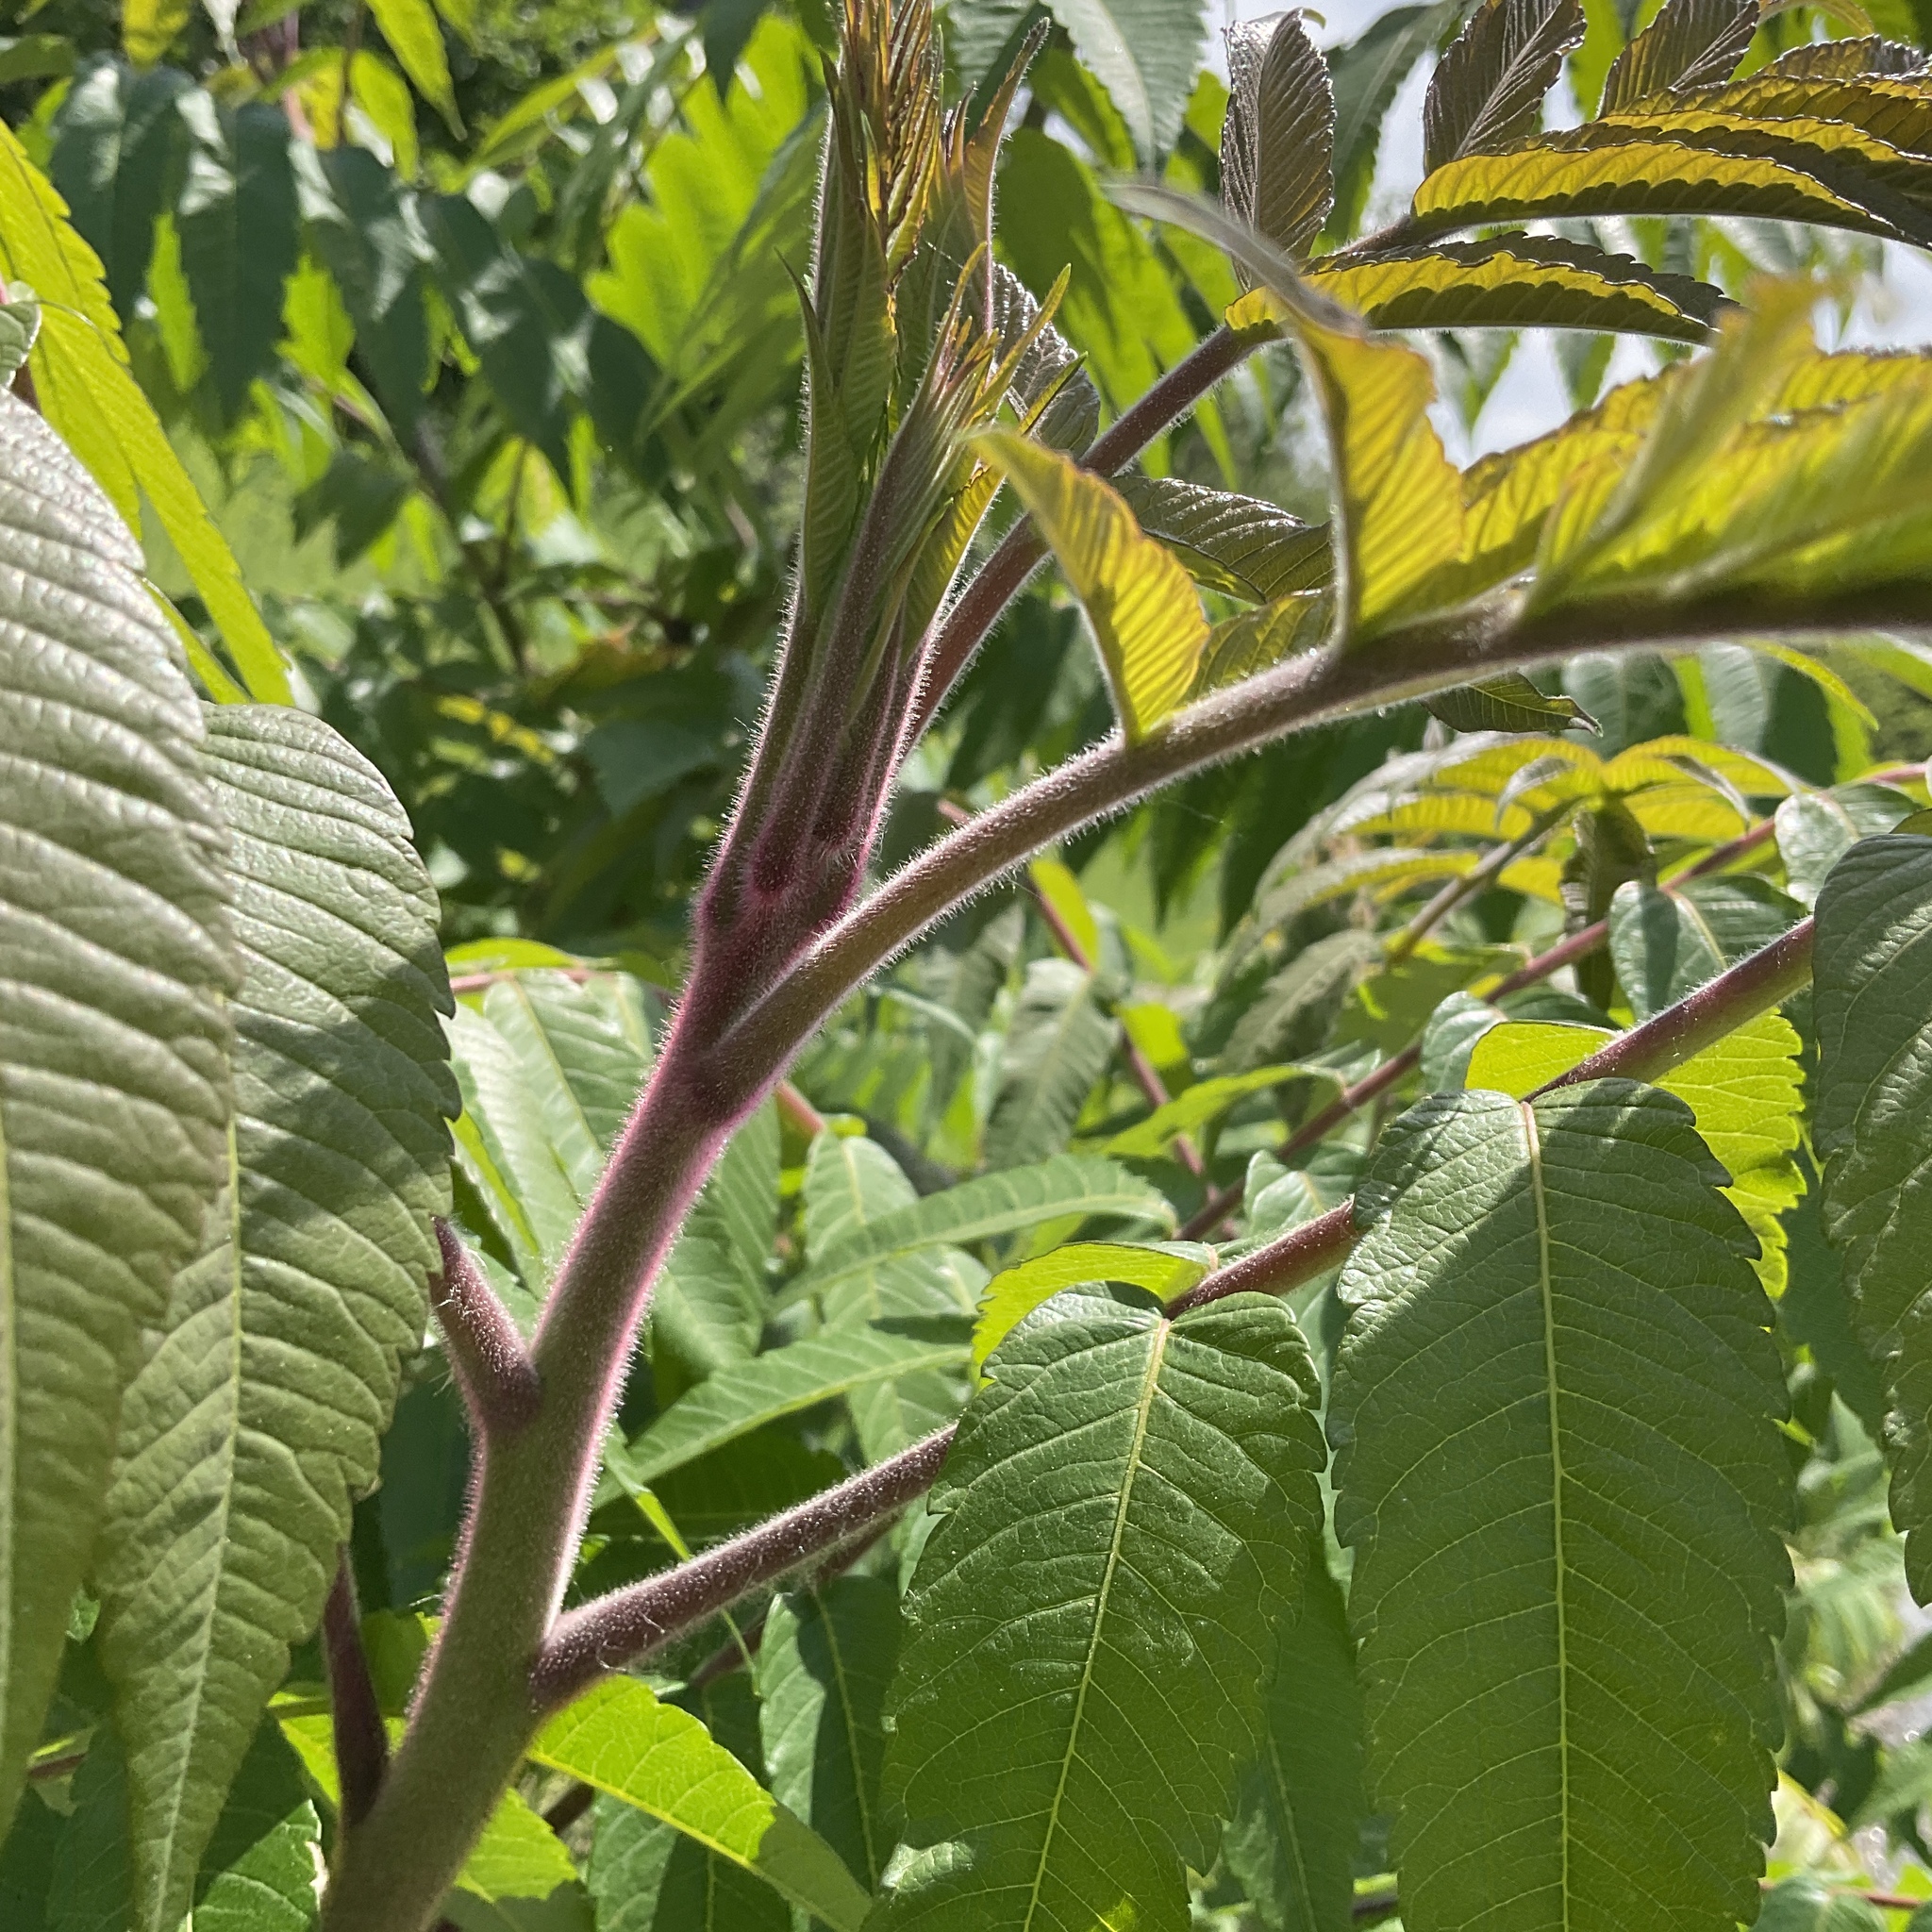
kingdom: Plantae
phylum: Tracheophyta
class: Magnoliopsida
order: Sapindales
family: Anacardiaceae
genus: Rhus
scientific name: Rhus typhina
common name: Staghorn sumac
